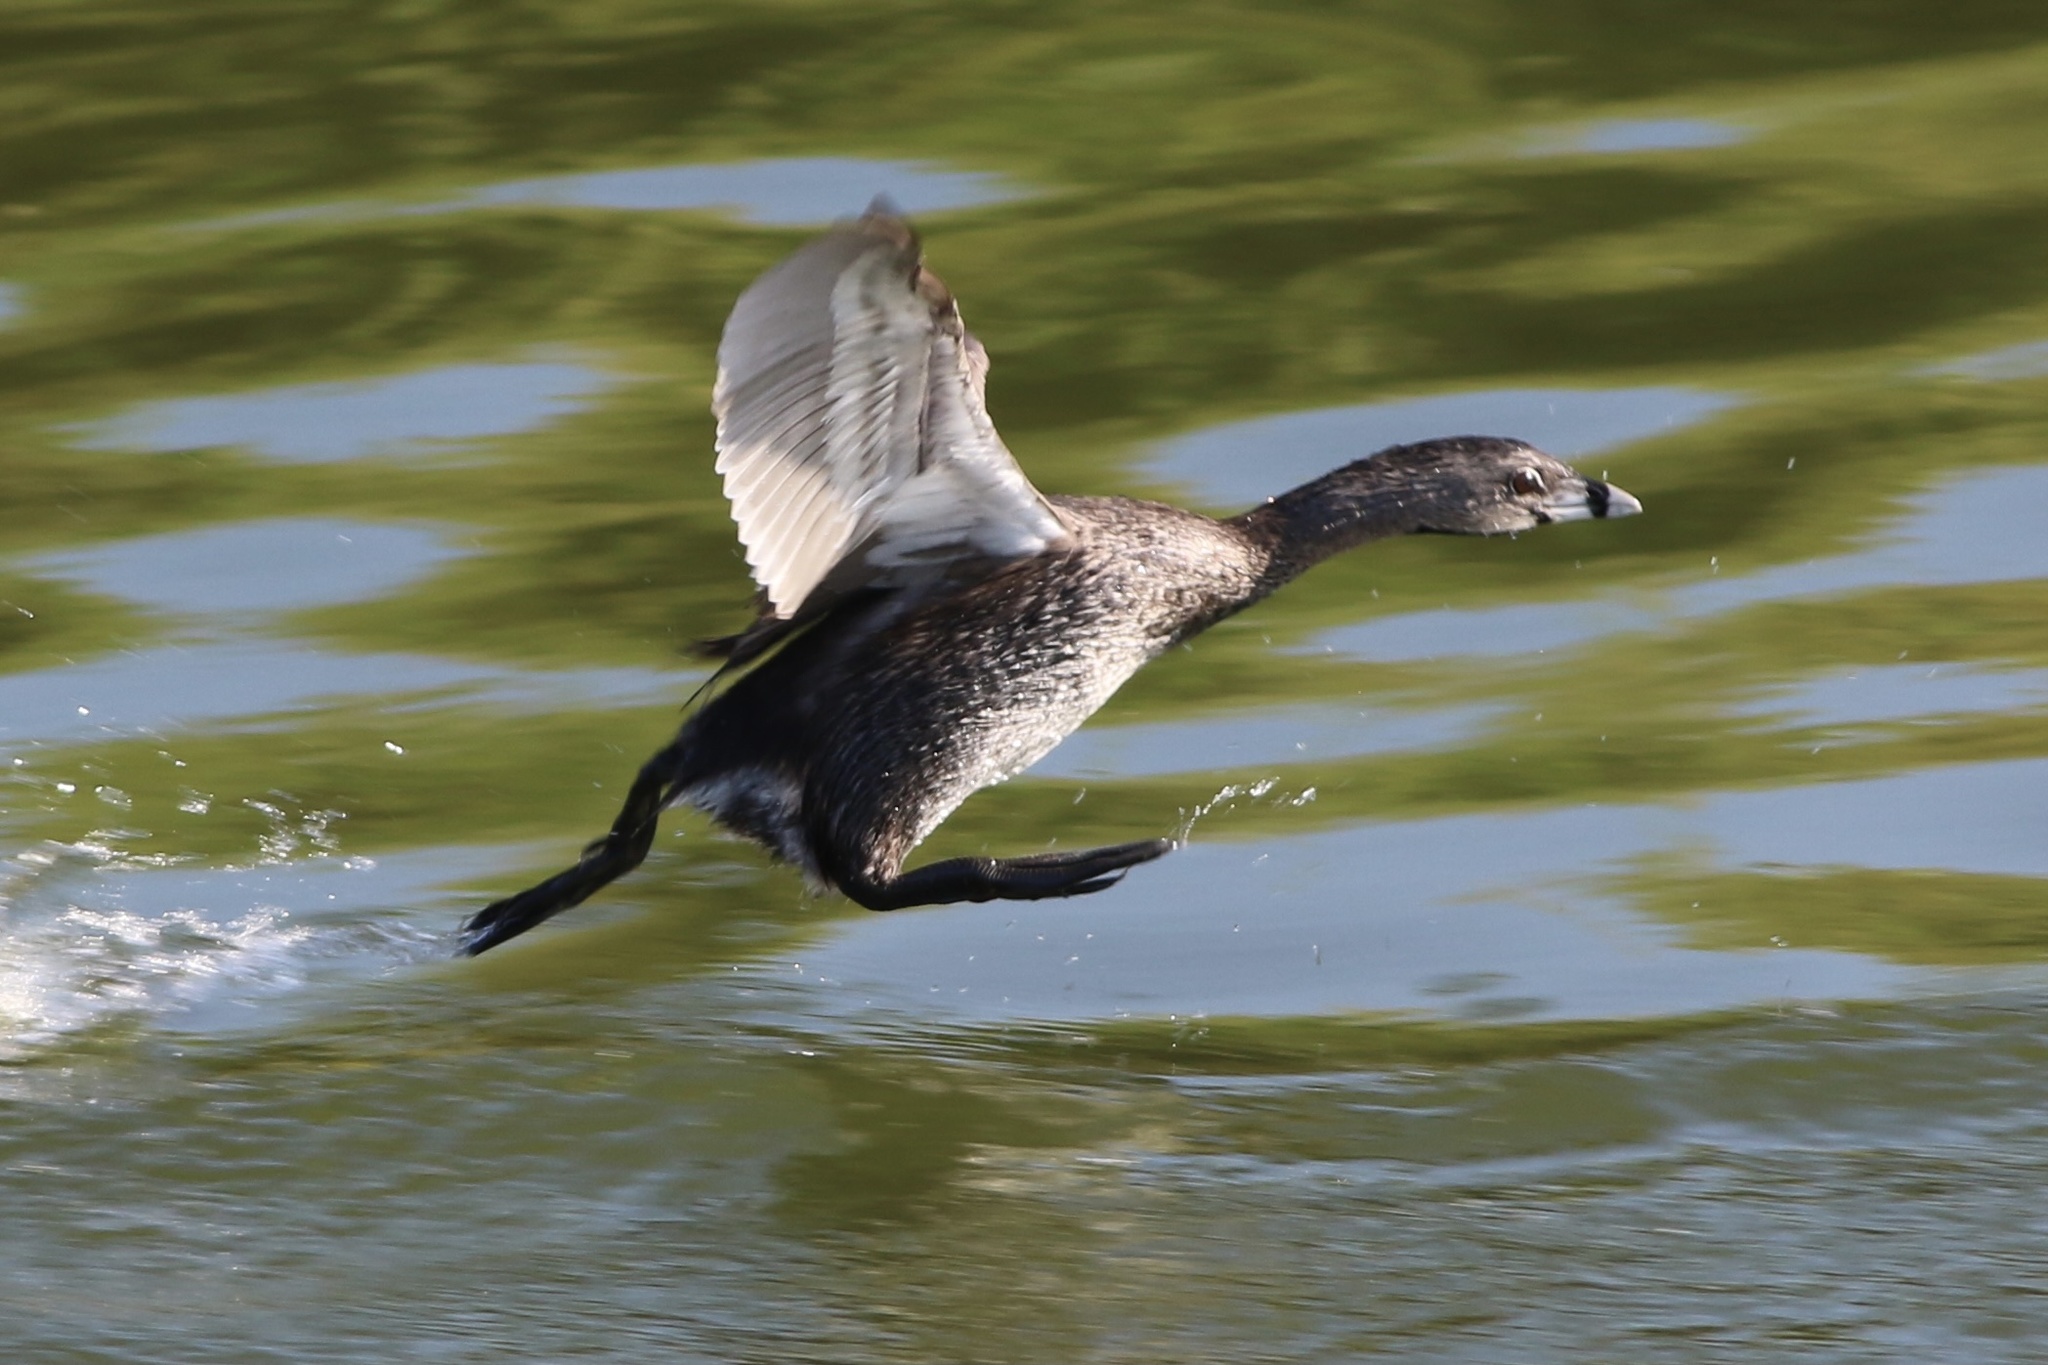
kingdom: Animalia
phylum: Chordata
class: Aves
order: Podicipediformes
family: Podicipedidae
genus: Podilymbus
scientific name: Podilymbus podiceps
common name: Pied-billed grebe
